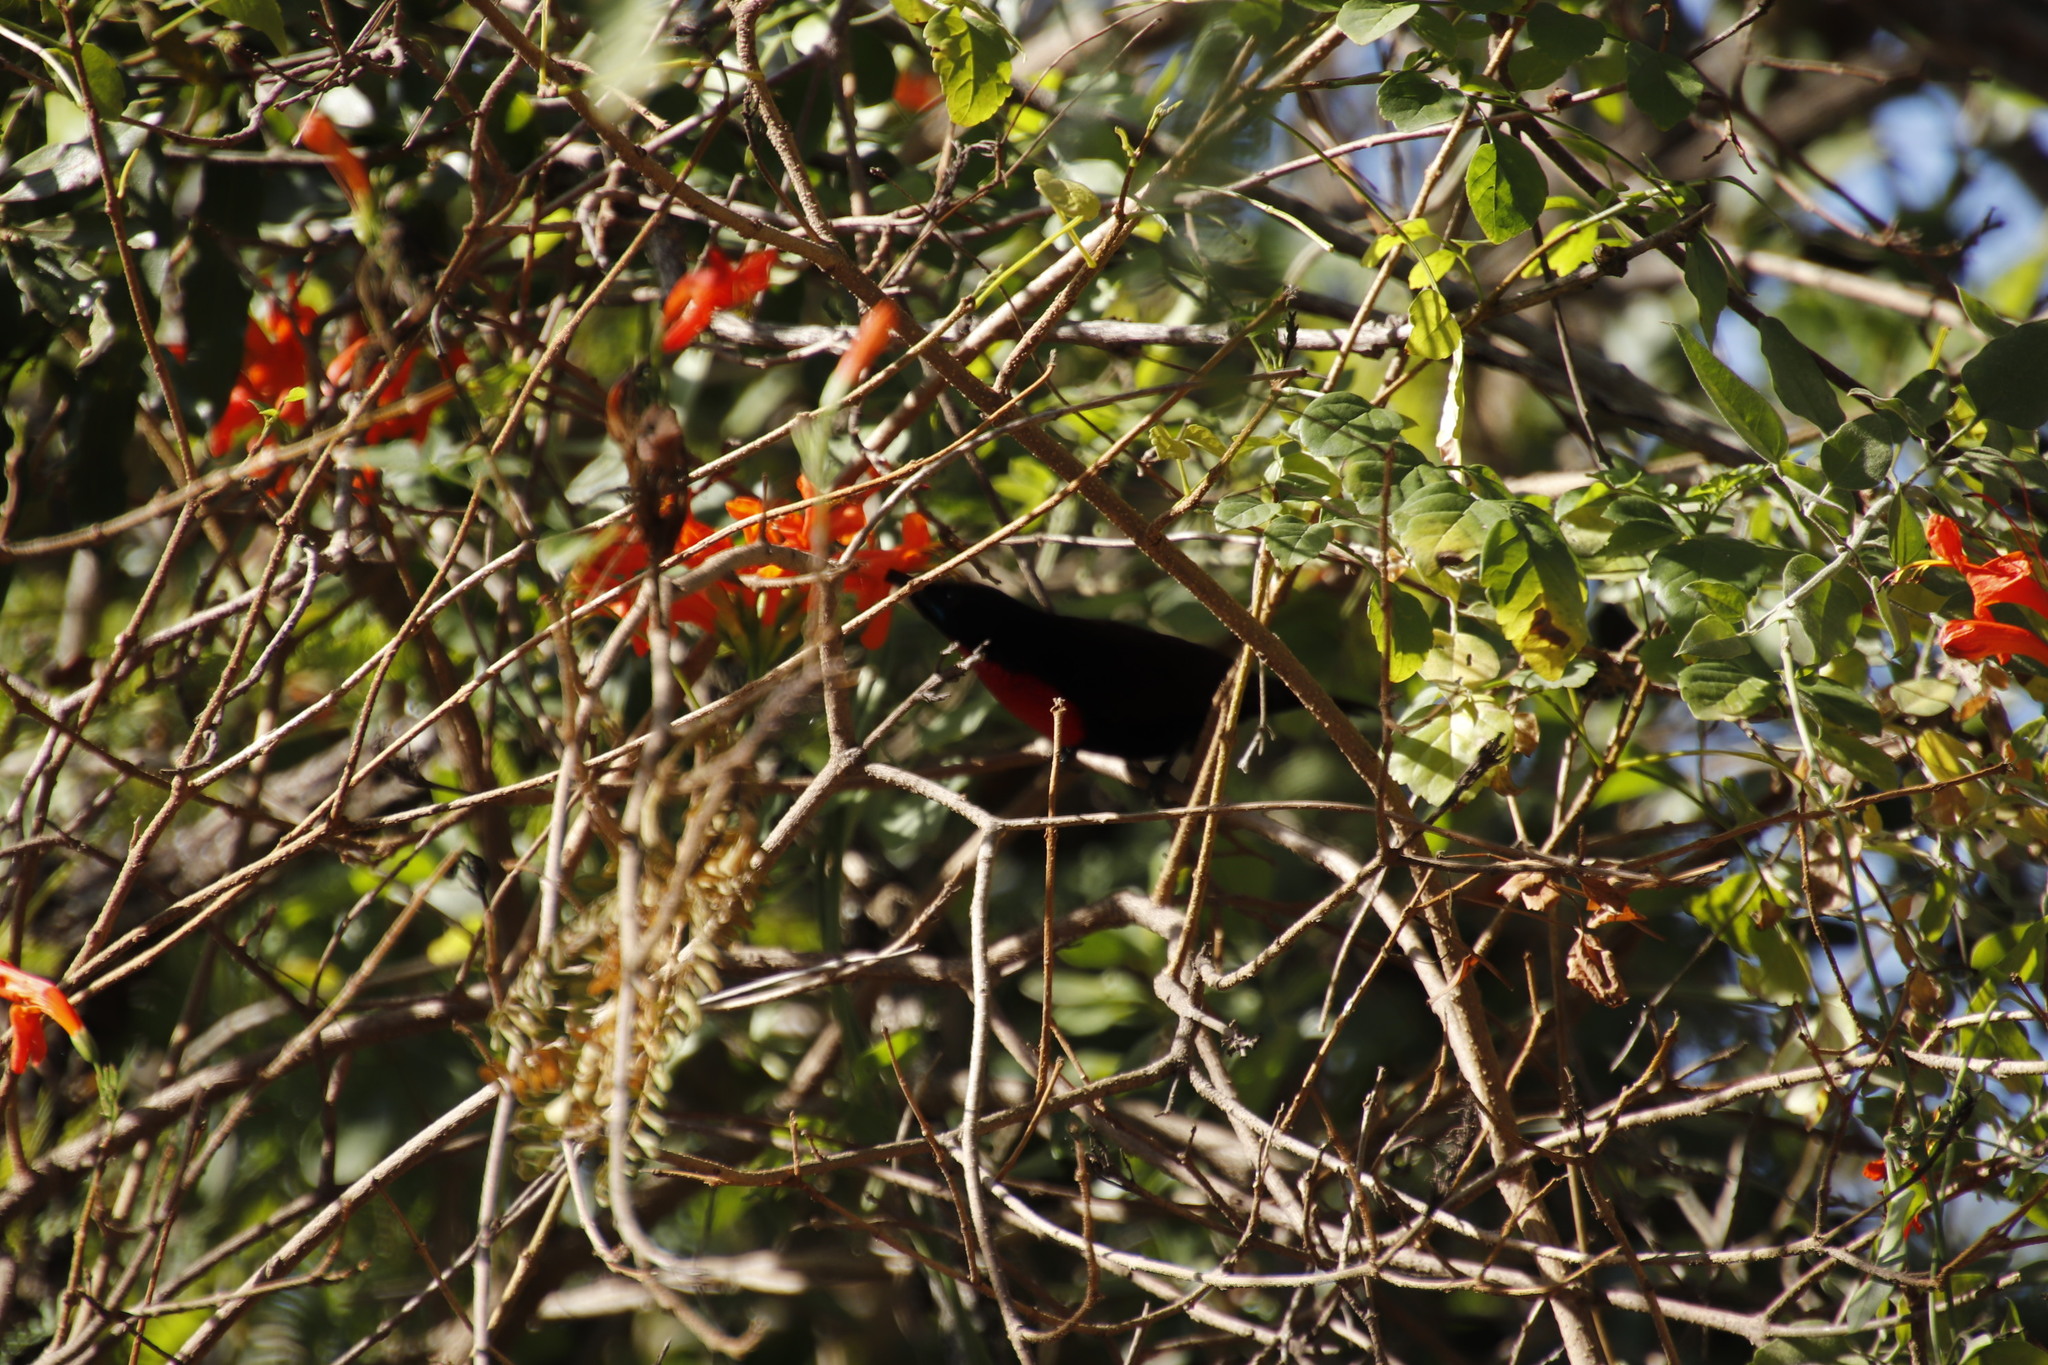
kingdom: Animalia
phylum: Chordata
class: Aves
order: Passeriformes
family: Nectariniidae
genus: Chalcomitra
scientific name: Chalcomitra senegalensis
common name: Scarlet-chested sunbird
